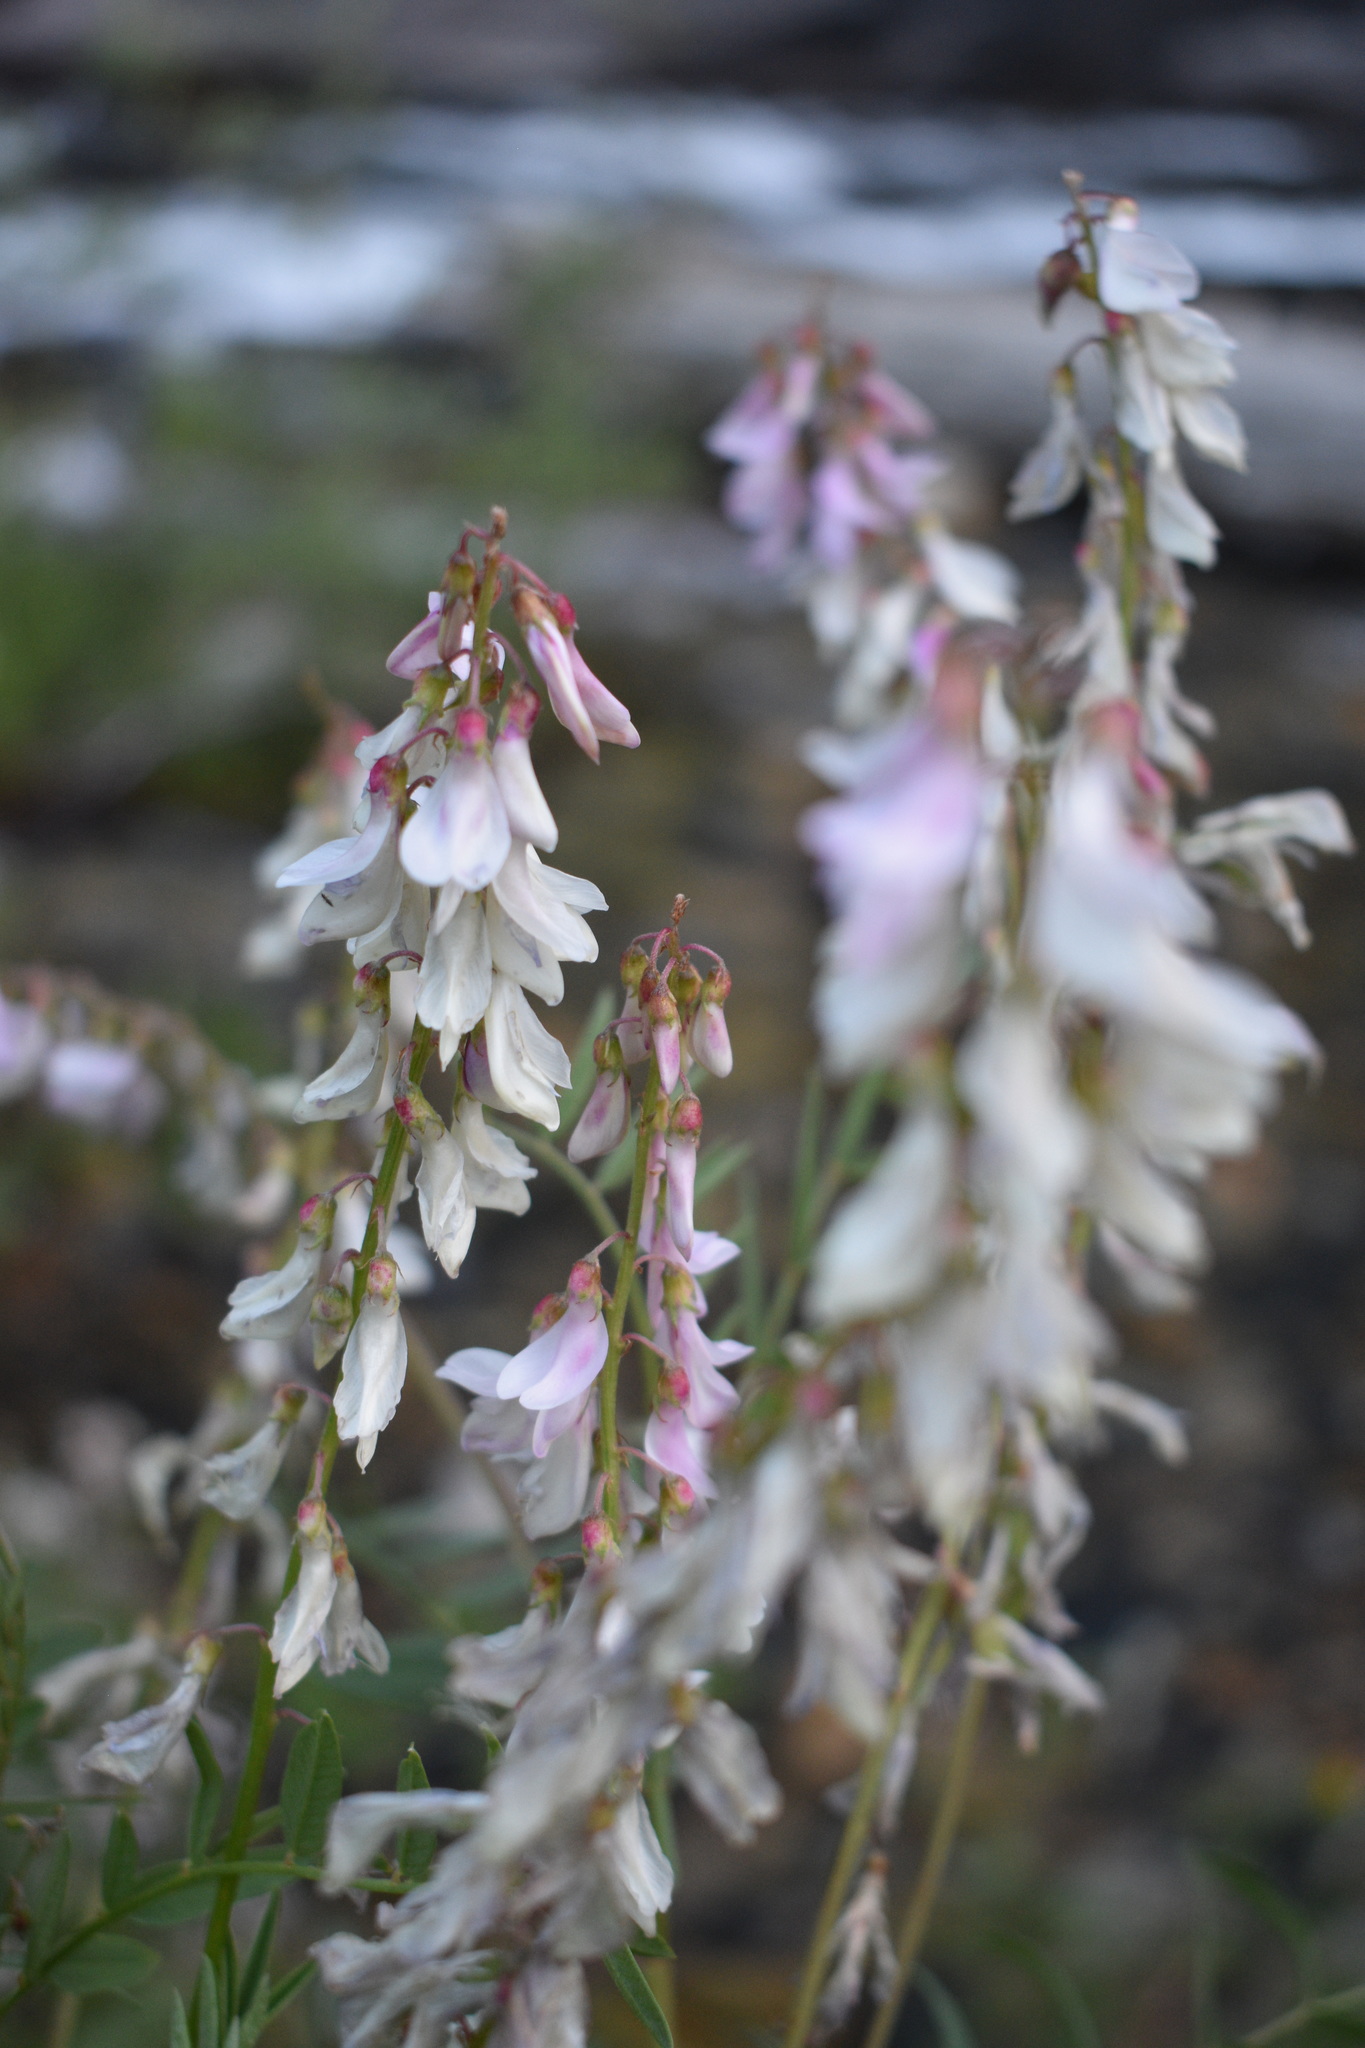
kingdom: Plantae
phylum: Tracheophyta
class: Magnoliopsida
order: Fabales
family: Fabaceae
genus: Hedysarum
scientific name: Hedysarum occidentale
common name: Western hedysarum
